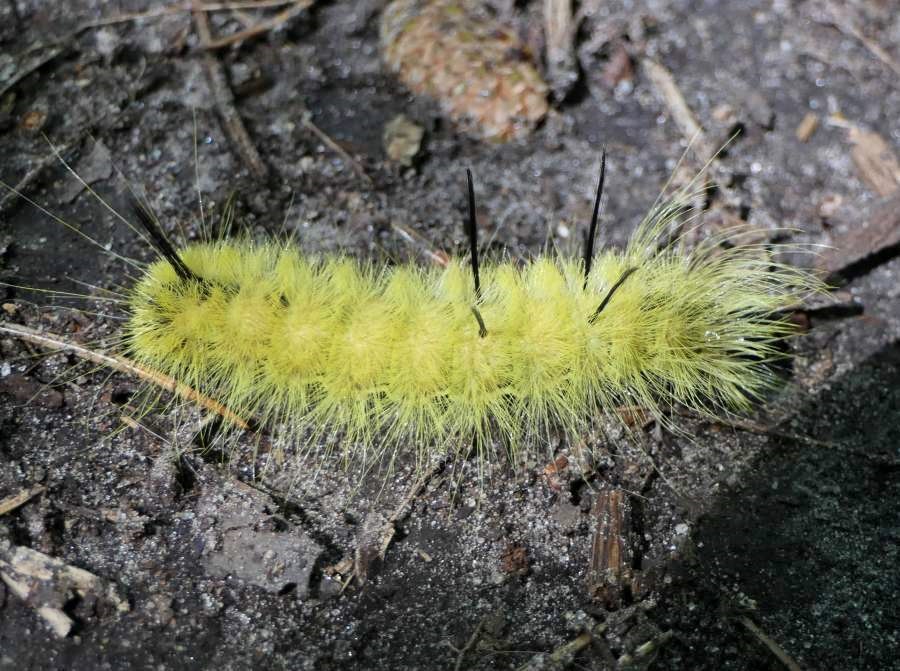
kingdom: Animalia
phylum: Arthropoda
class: Insecta
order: Lepidoptera
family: Noctuidae
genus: Acronicta
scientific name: Acronicta americana
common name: American dagger
